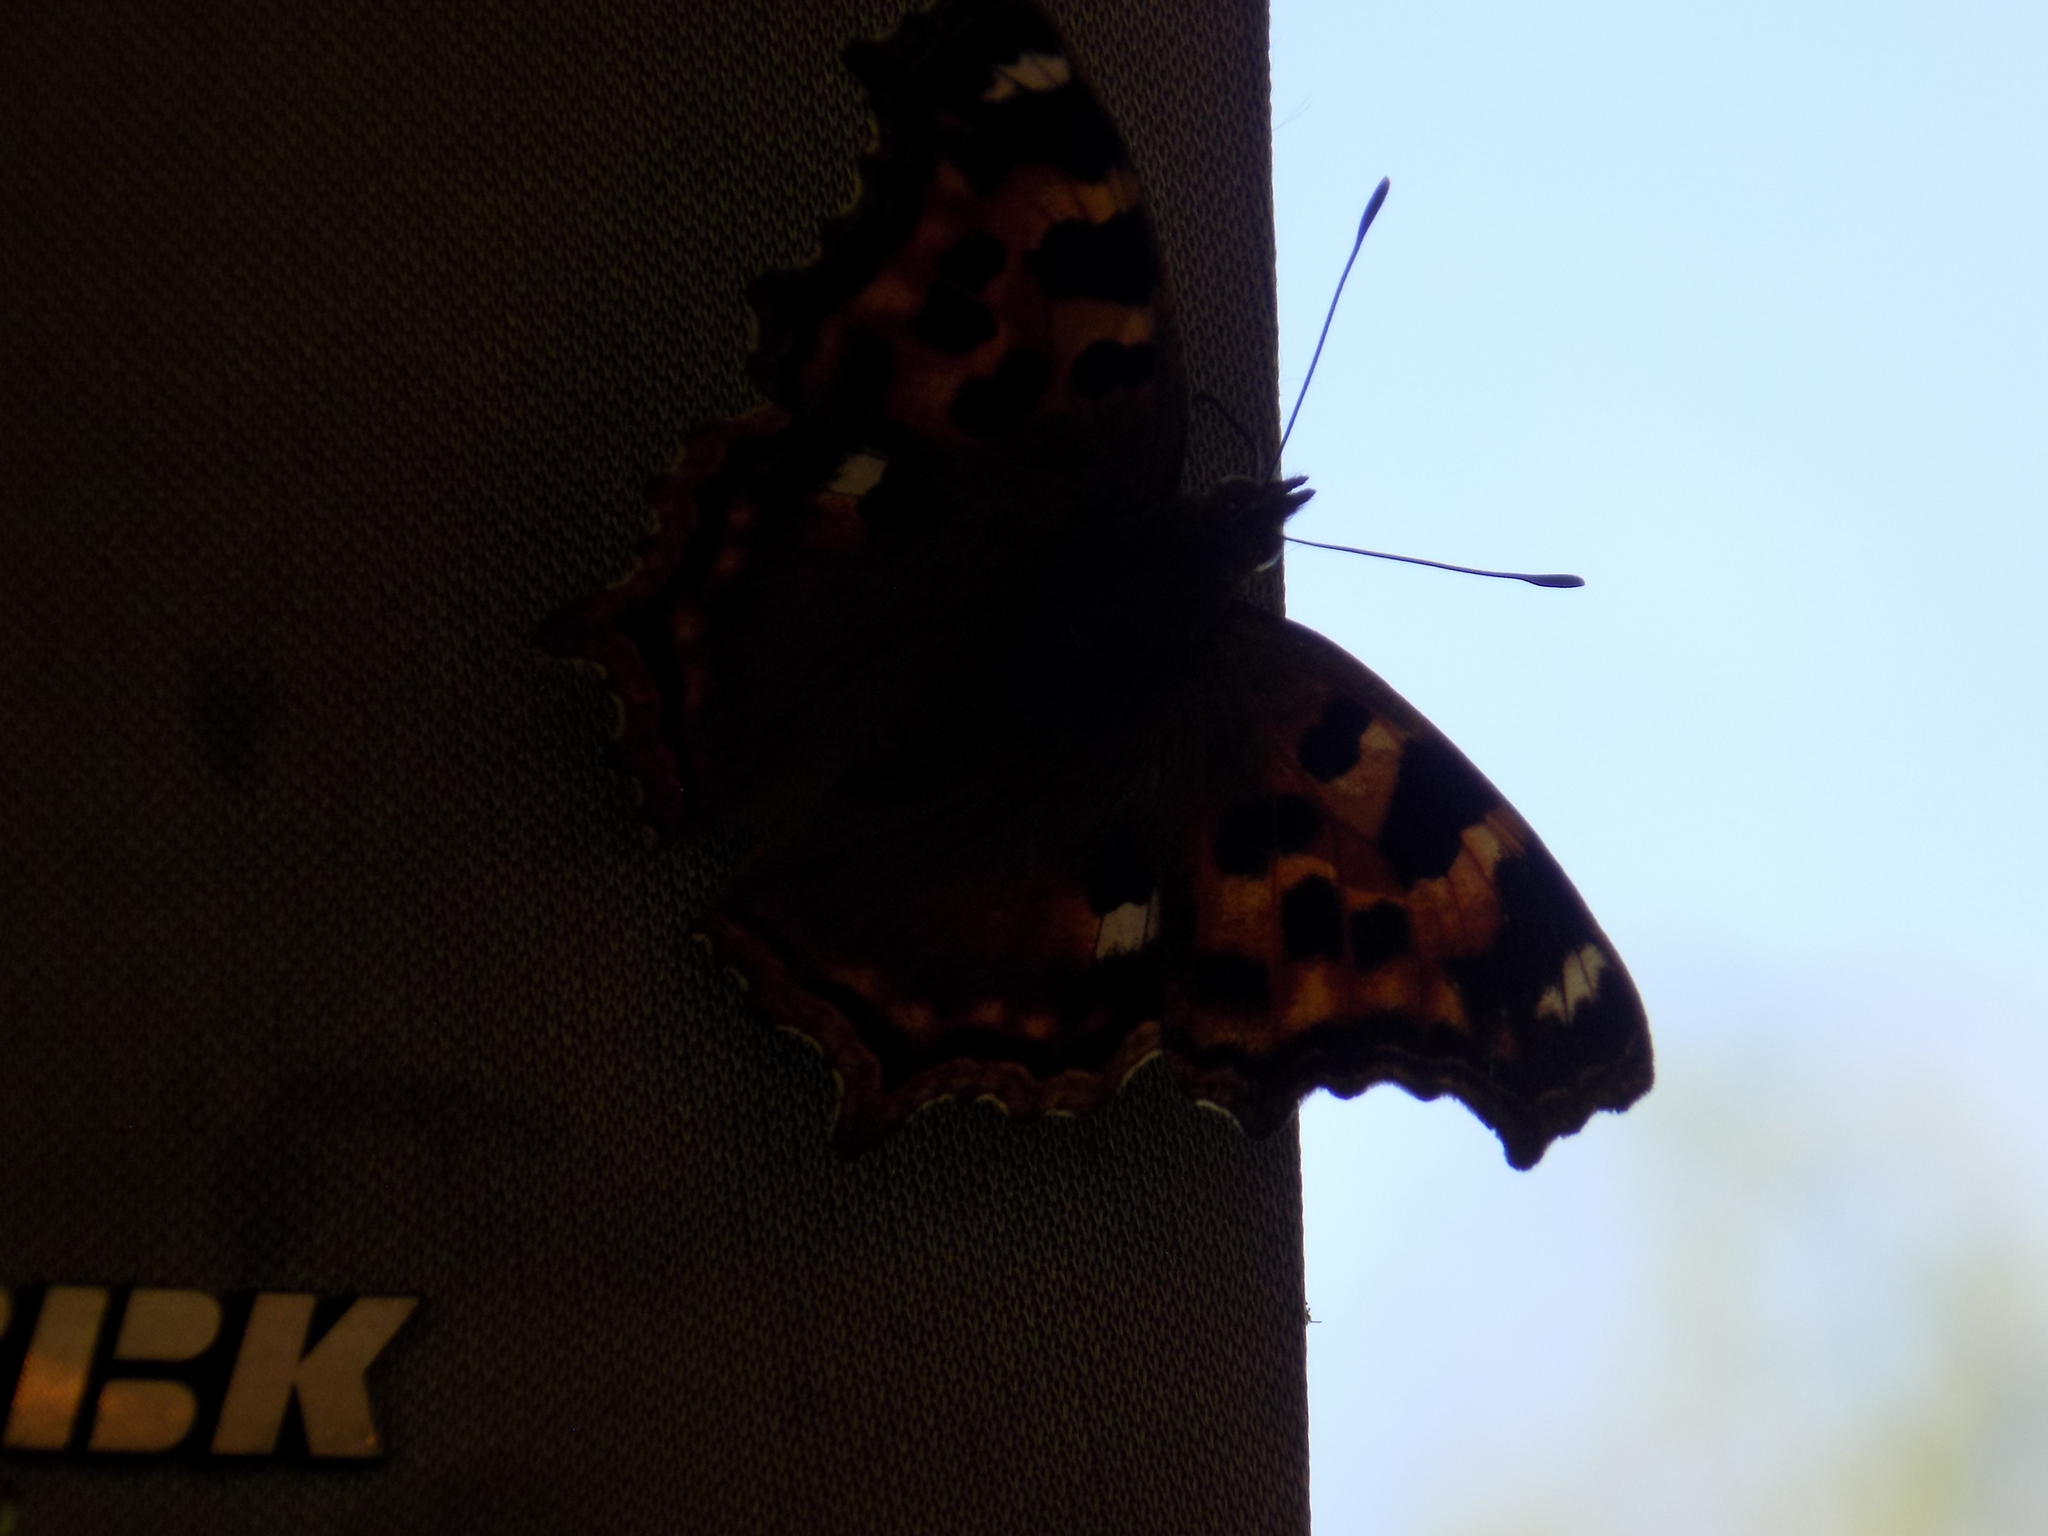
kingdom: Animalia
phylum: Arthropoda
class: Insecta
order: Lepidoptera
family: Nymphalidae
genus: Polygonia
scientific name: Polygonia vaualbum
